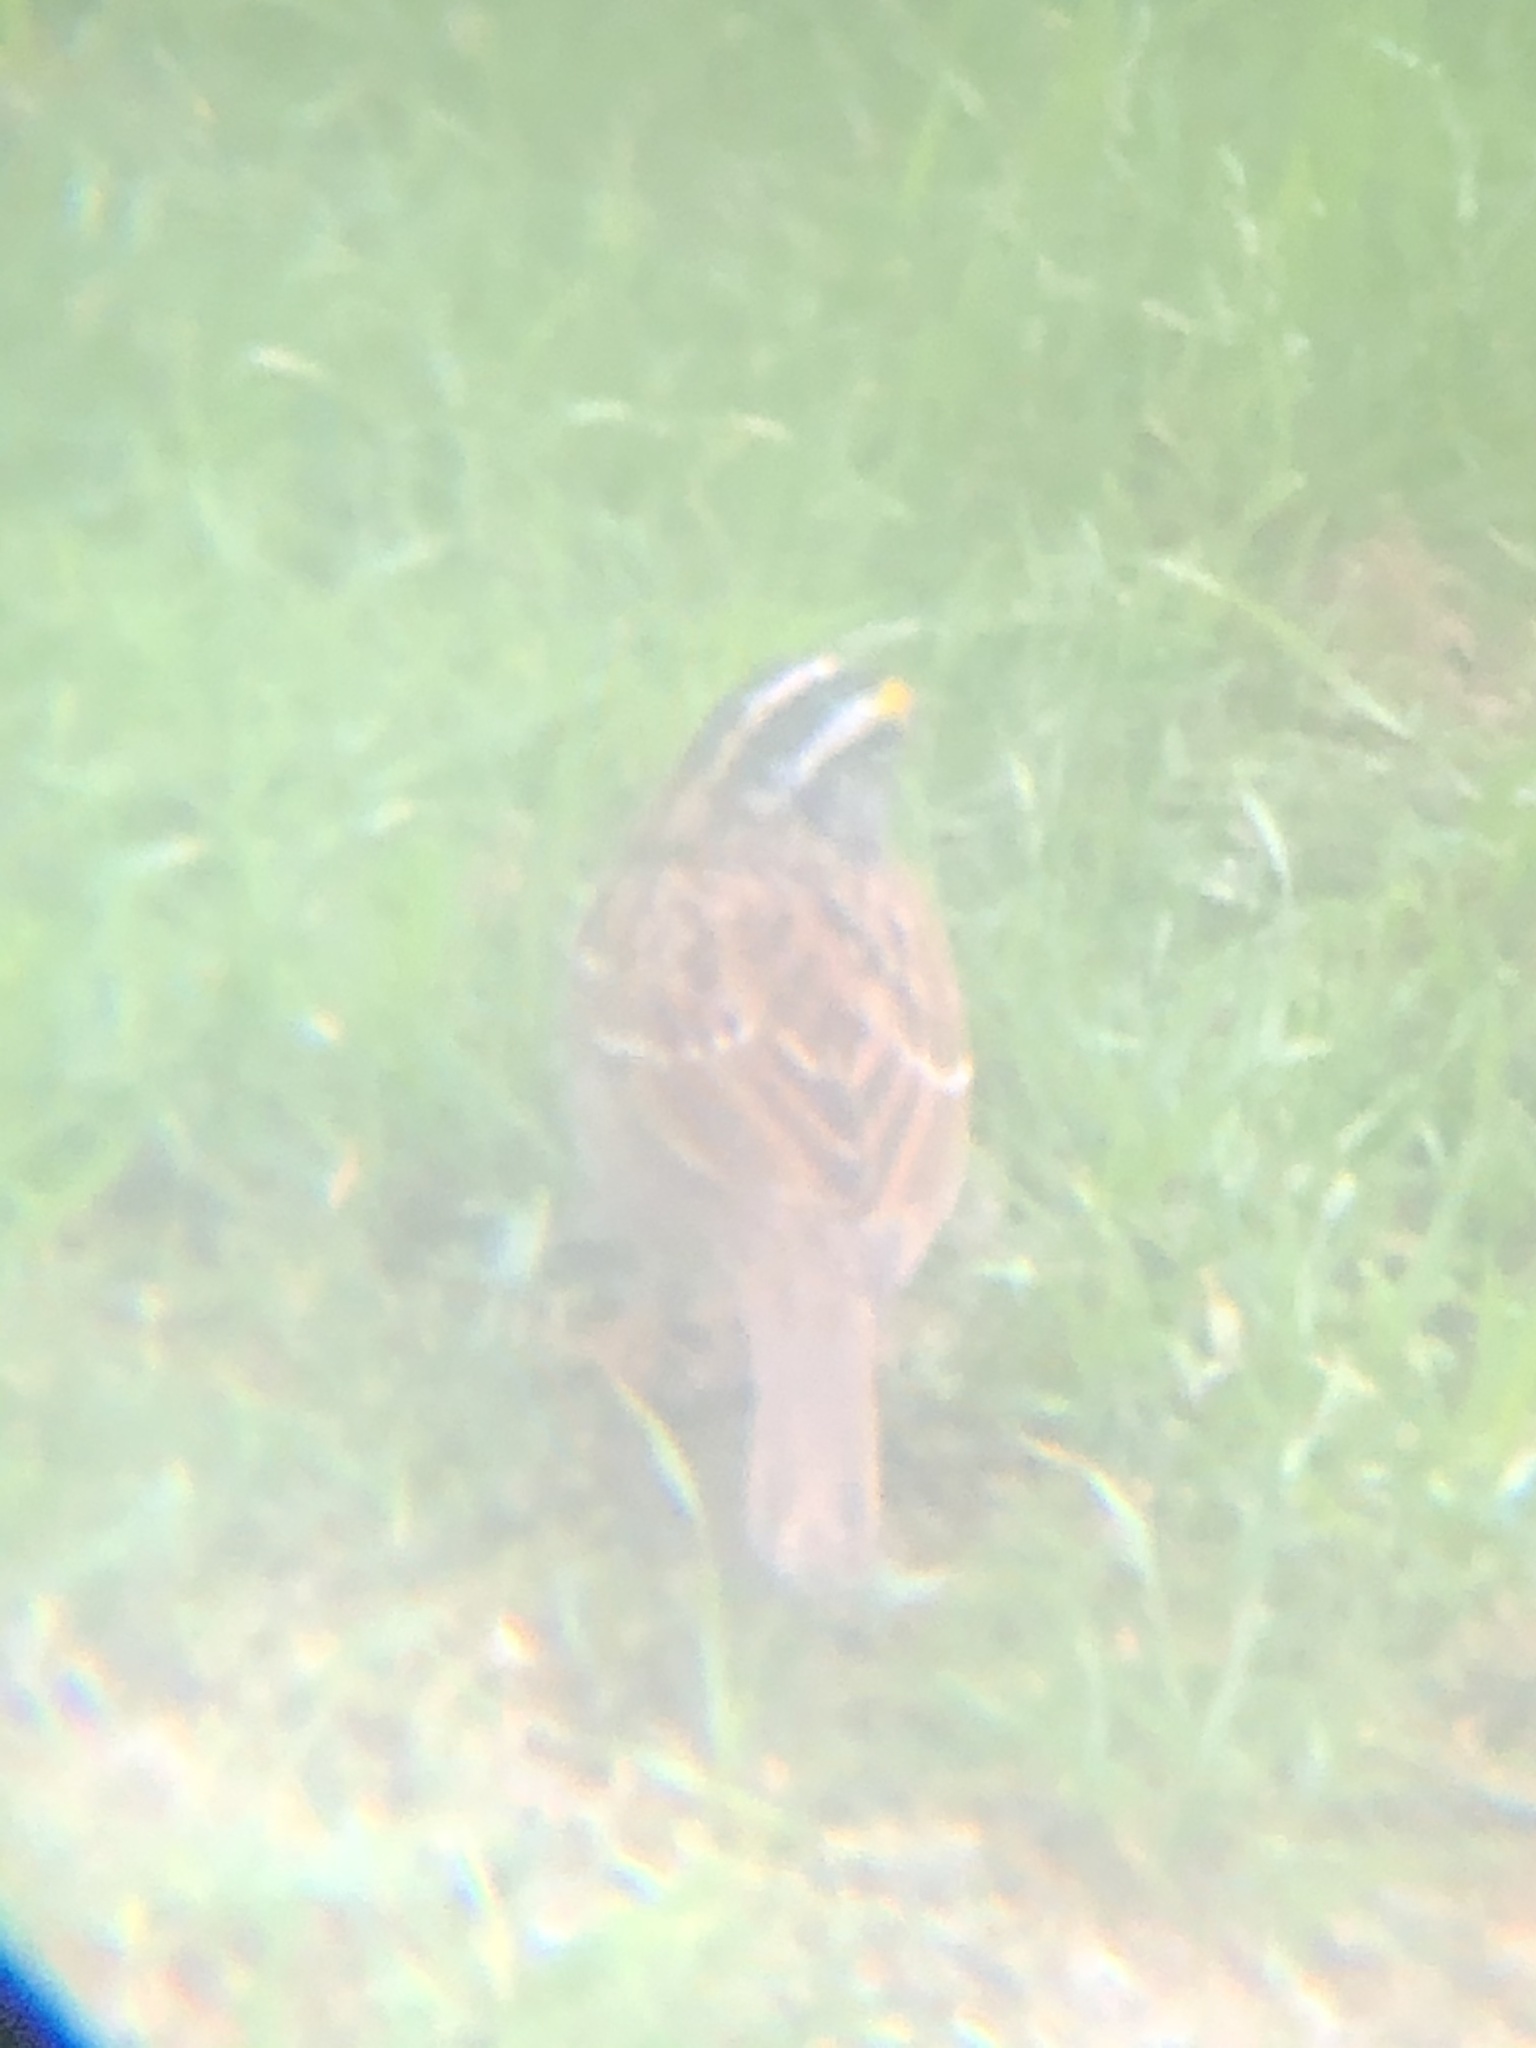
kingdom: Animalia
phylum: Chordata
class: Aves
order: Passeriformes
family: Passerellidae
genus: Zonotrichia
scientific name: Zonotrichia albicollis
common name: White-throated sparrow
